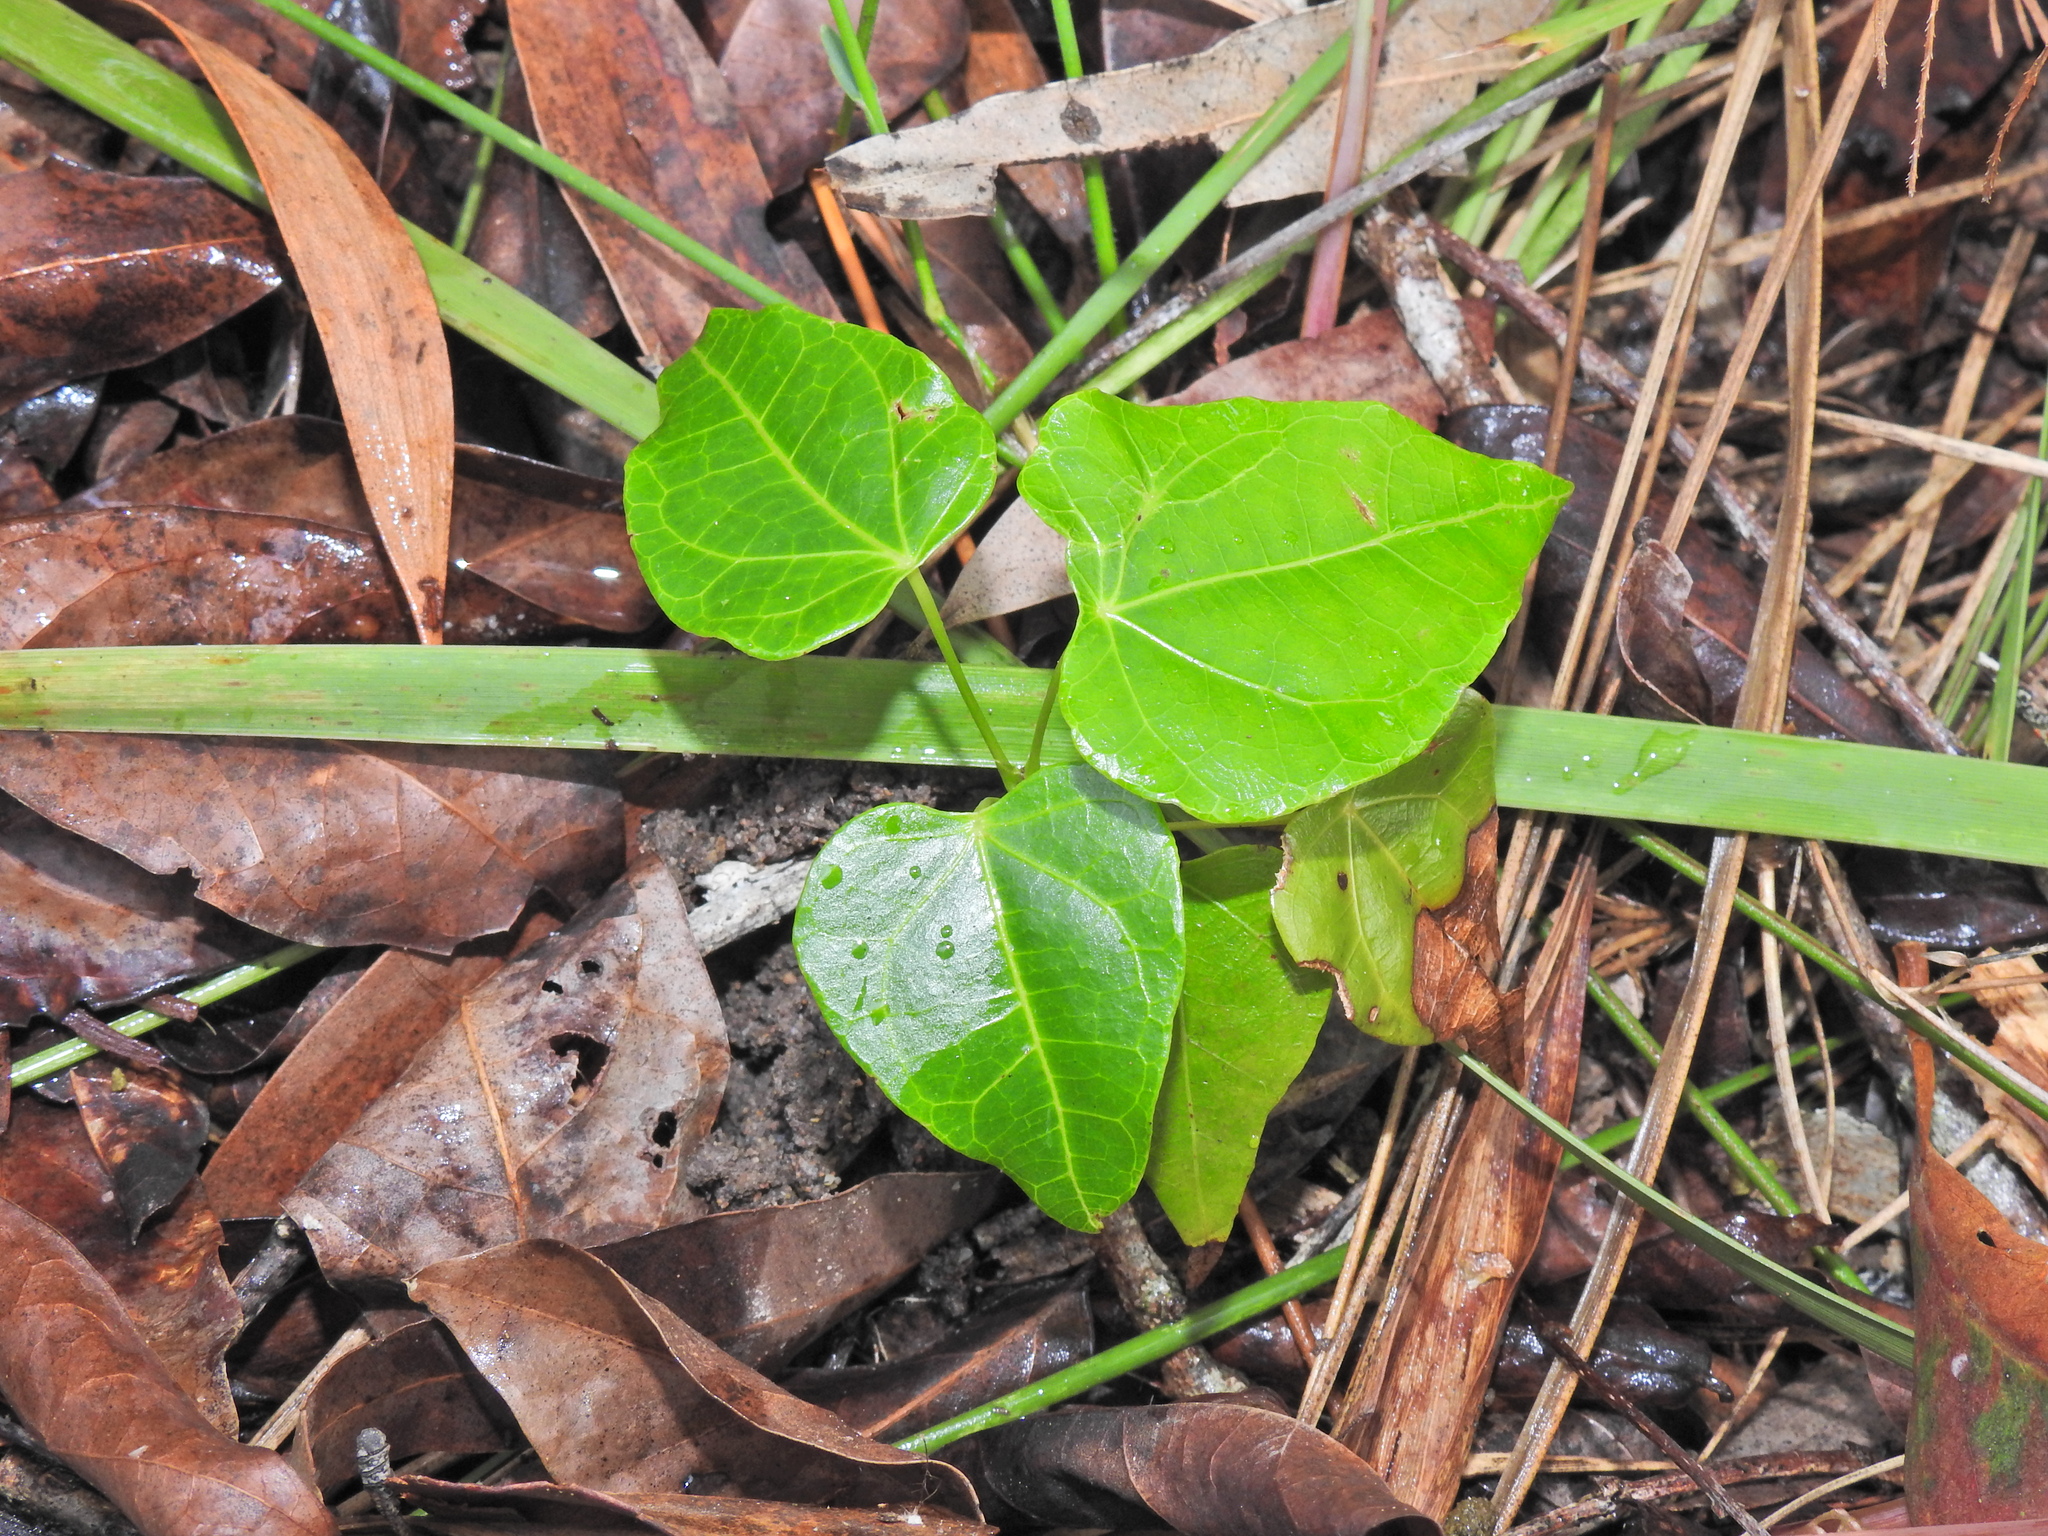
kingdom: Plantae
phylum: Tracheophyta
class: Magnoliopsida
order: Ranunculales
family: Menispermaceae
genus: Sarcopetalum
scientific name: Sarcopetalum harveyanum
